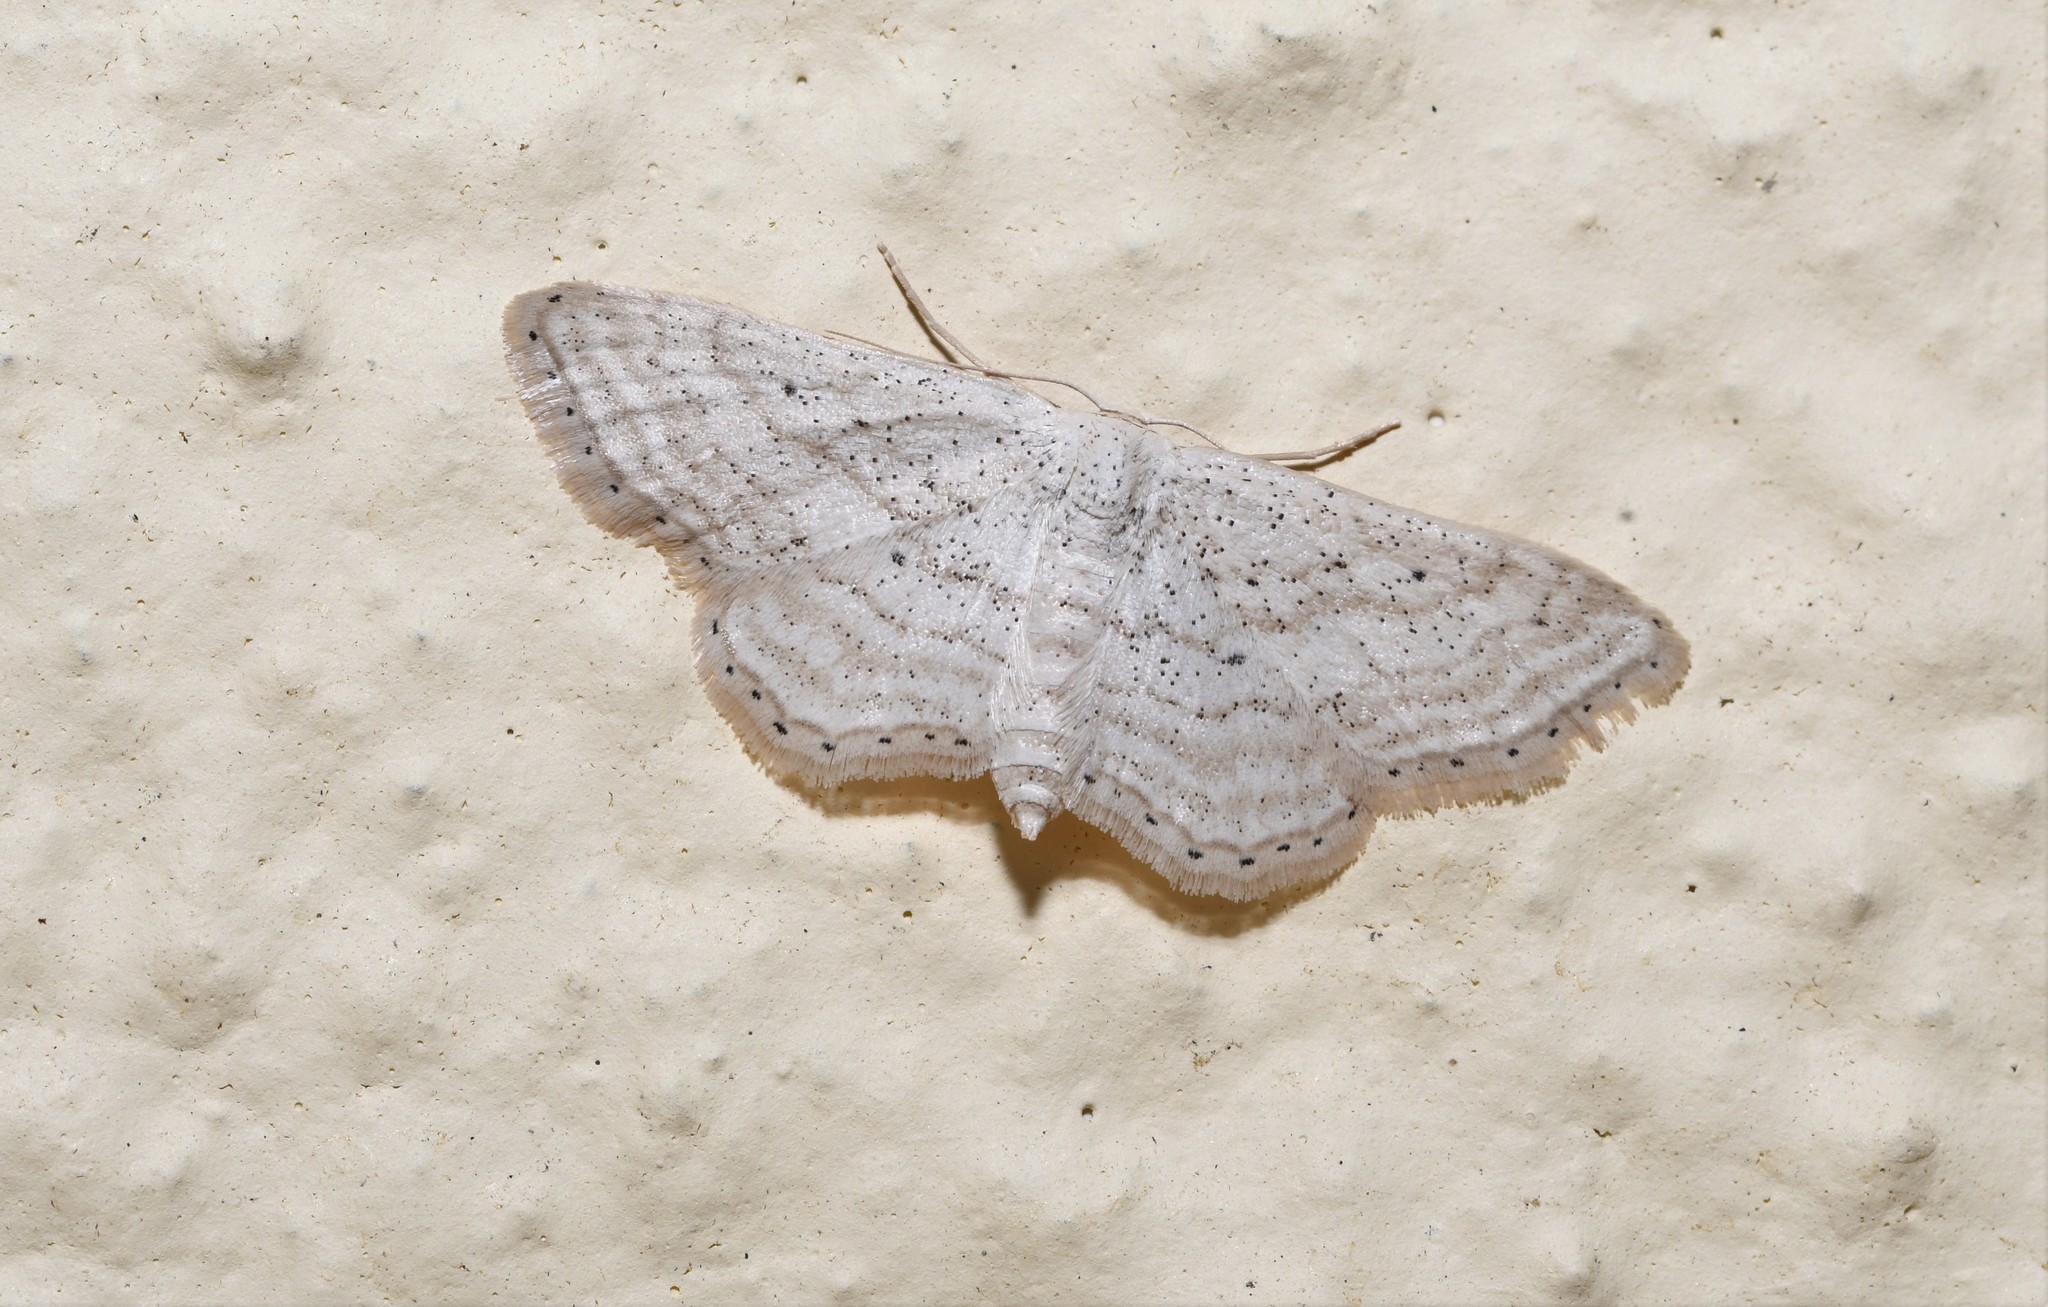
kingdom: Animalia
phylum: Arthropoda
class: Insecta
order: Lepidoptera
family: Geometridae
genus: Idaea
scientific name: Idaea elongaria
